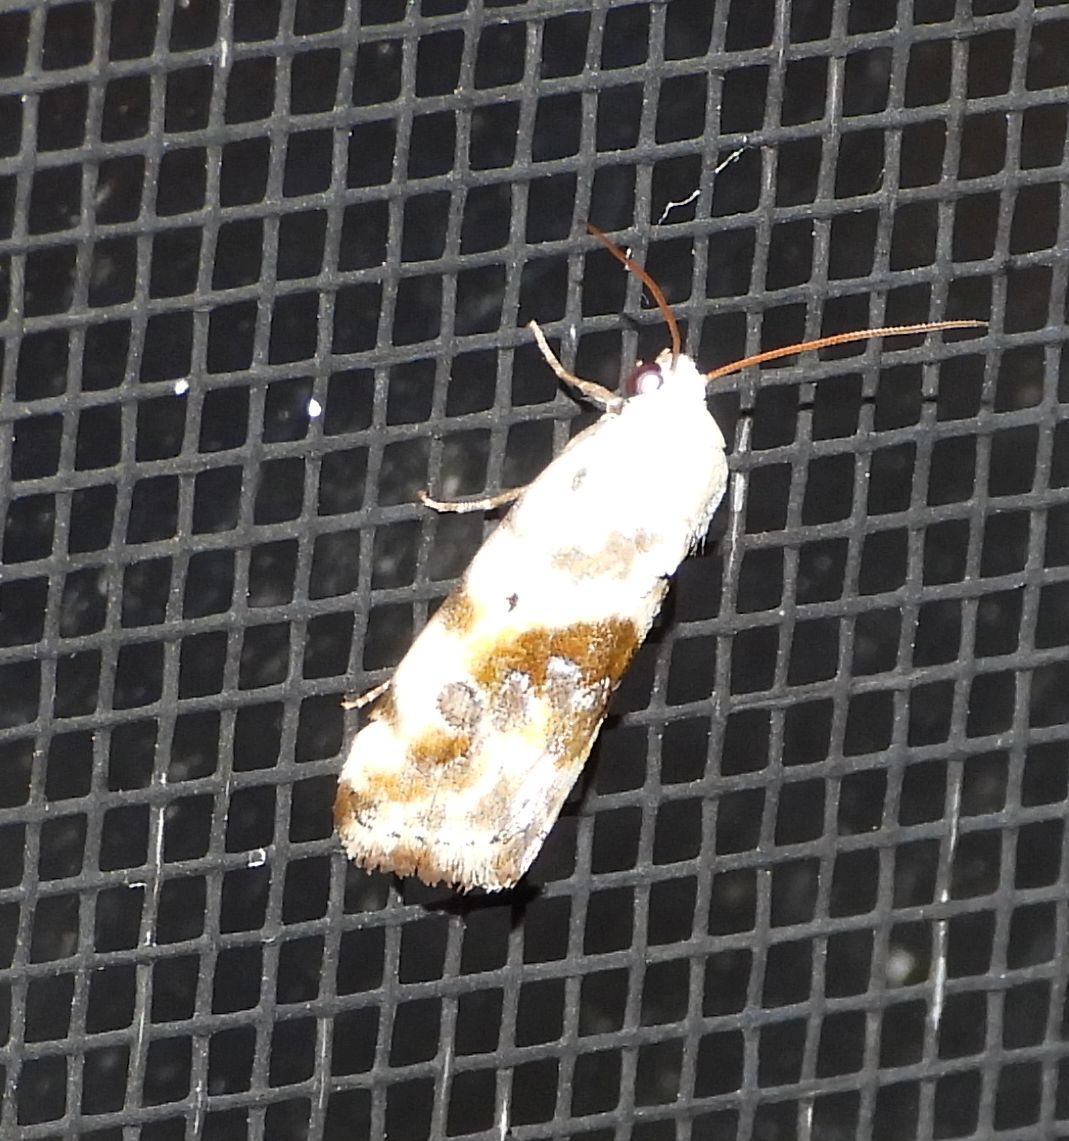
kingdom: Animalia
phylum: Arthropoda
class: Insecta
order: Lepidoptera
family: Noctuidae
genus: Acontia
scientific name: Acontia candefacta
